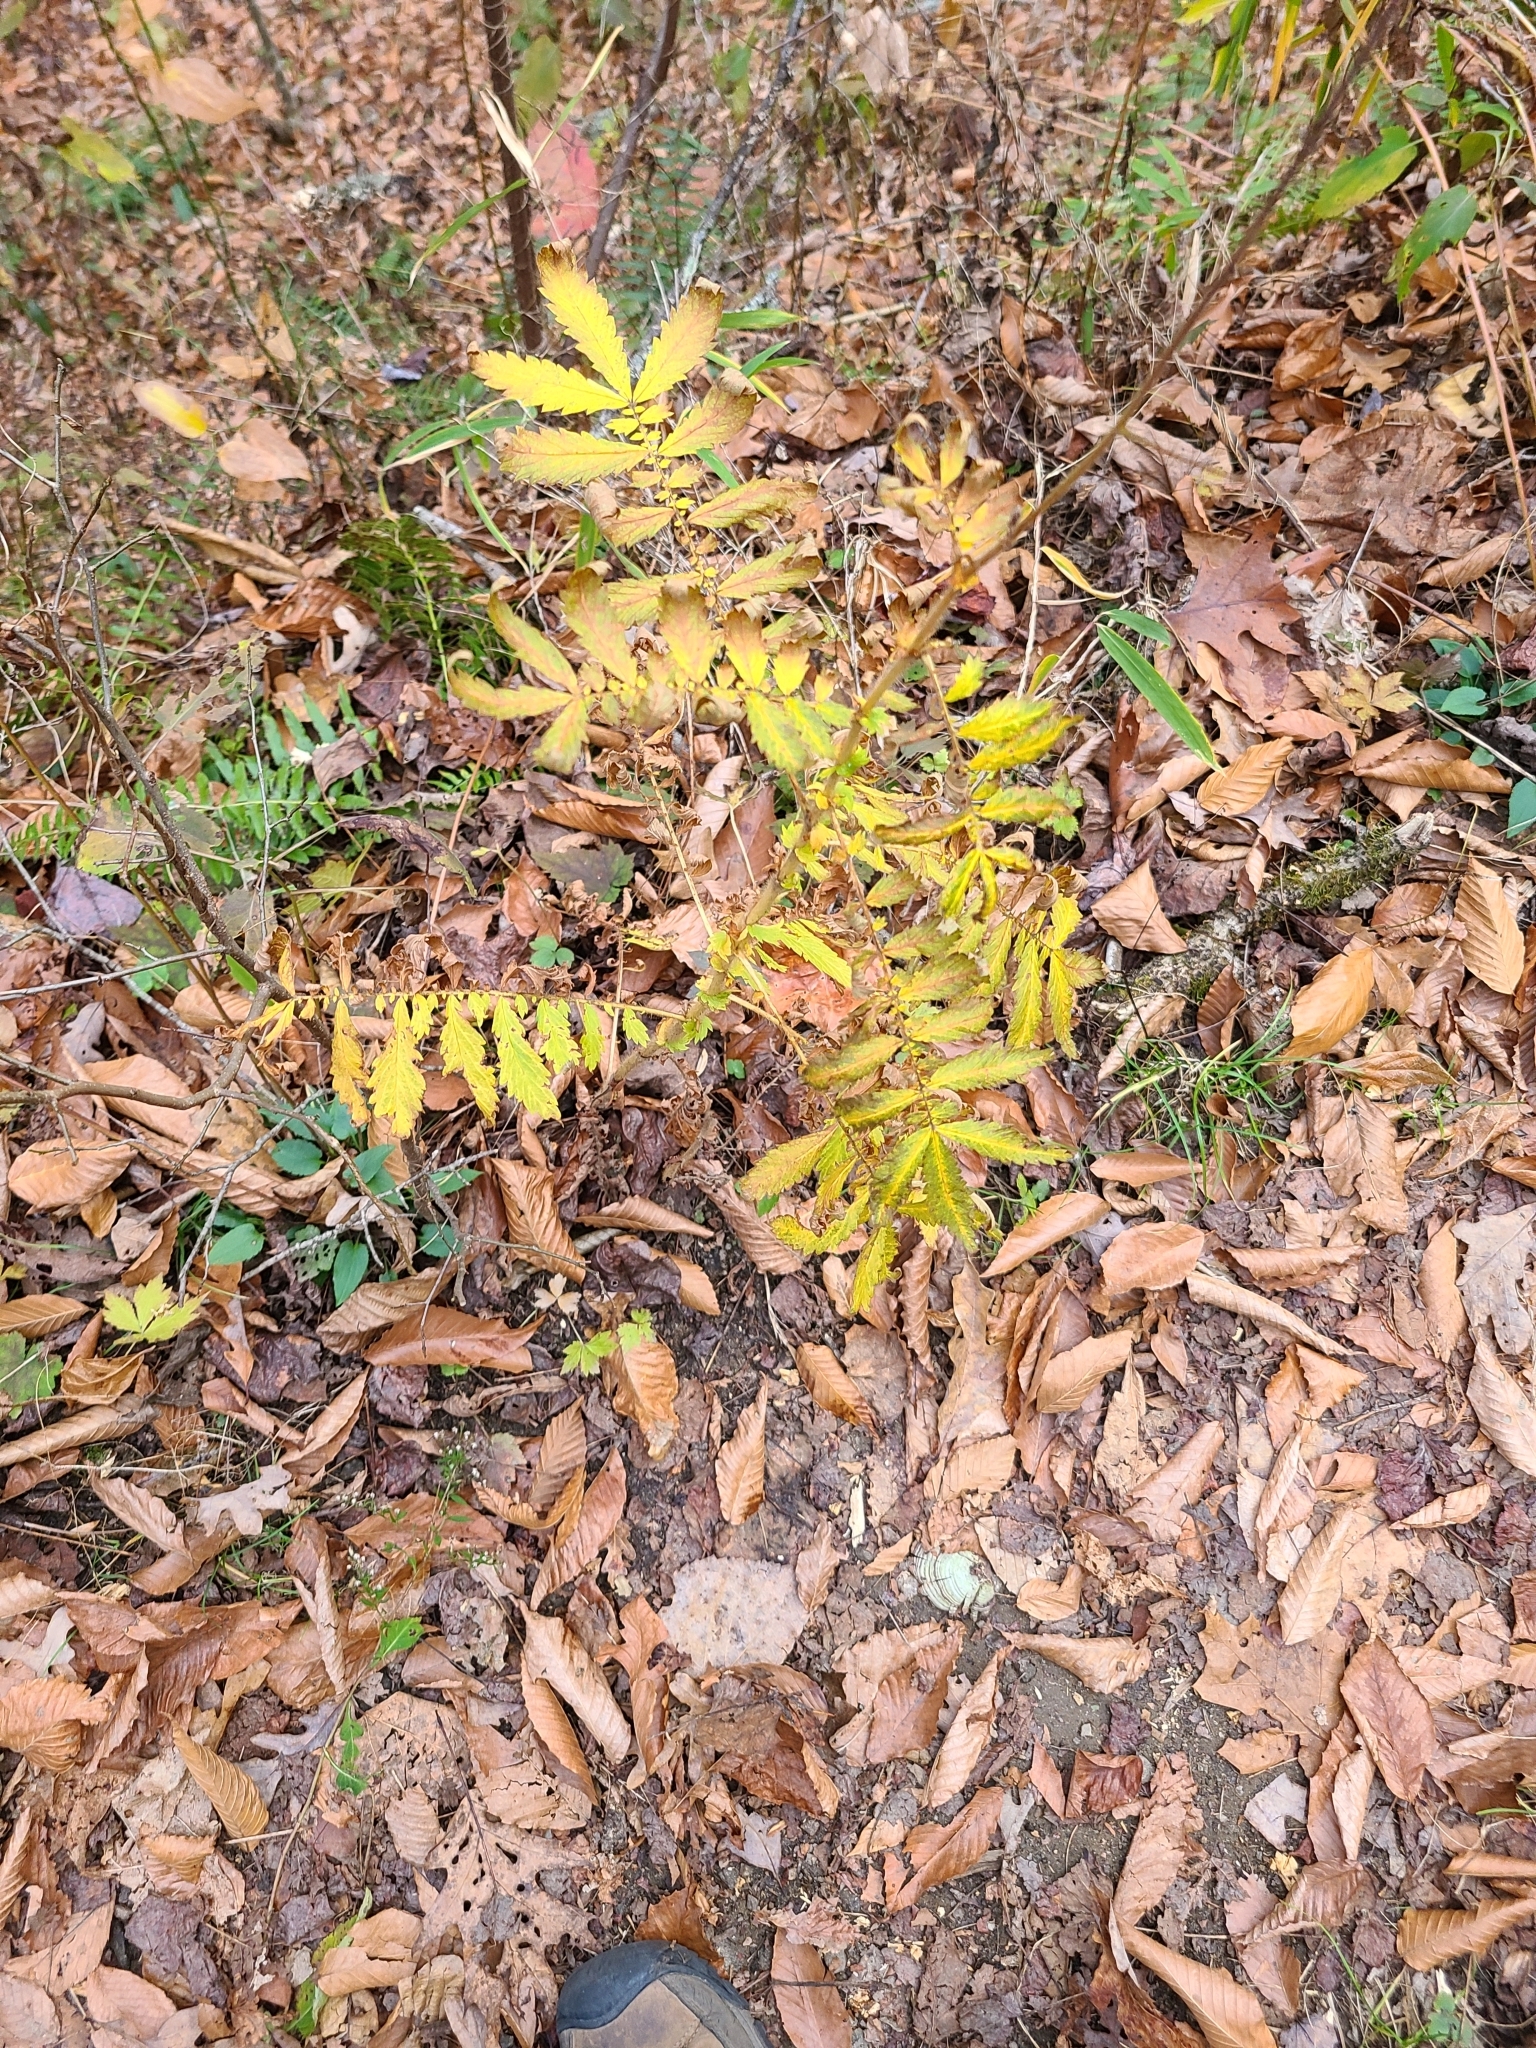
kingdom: Plantae
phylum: Tracheophyta
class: Magnoliopsida
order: Rosales
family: Rosaceae
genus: Agrimonia
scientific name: Agrimonia parviflora
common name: Harvest-lice
